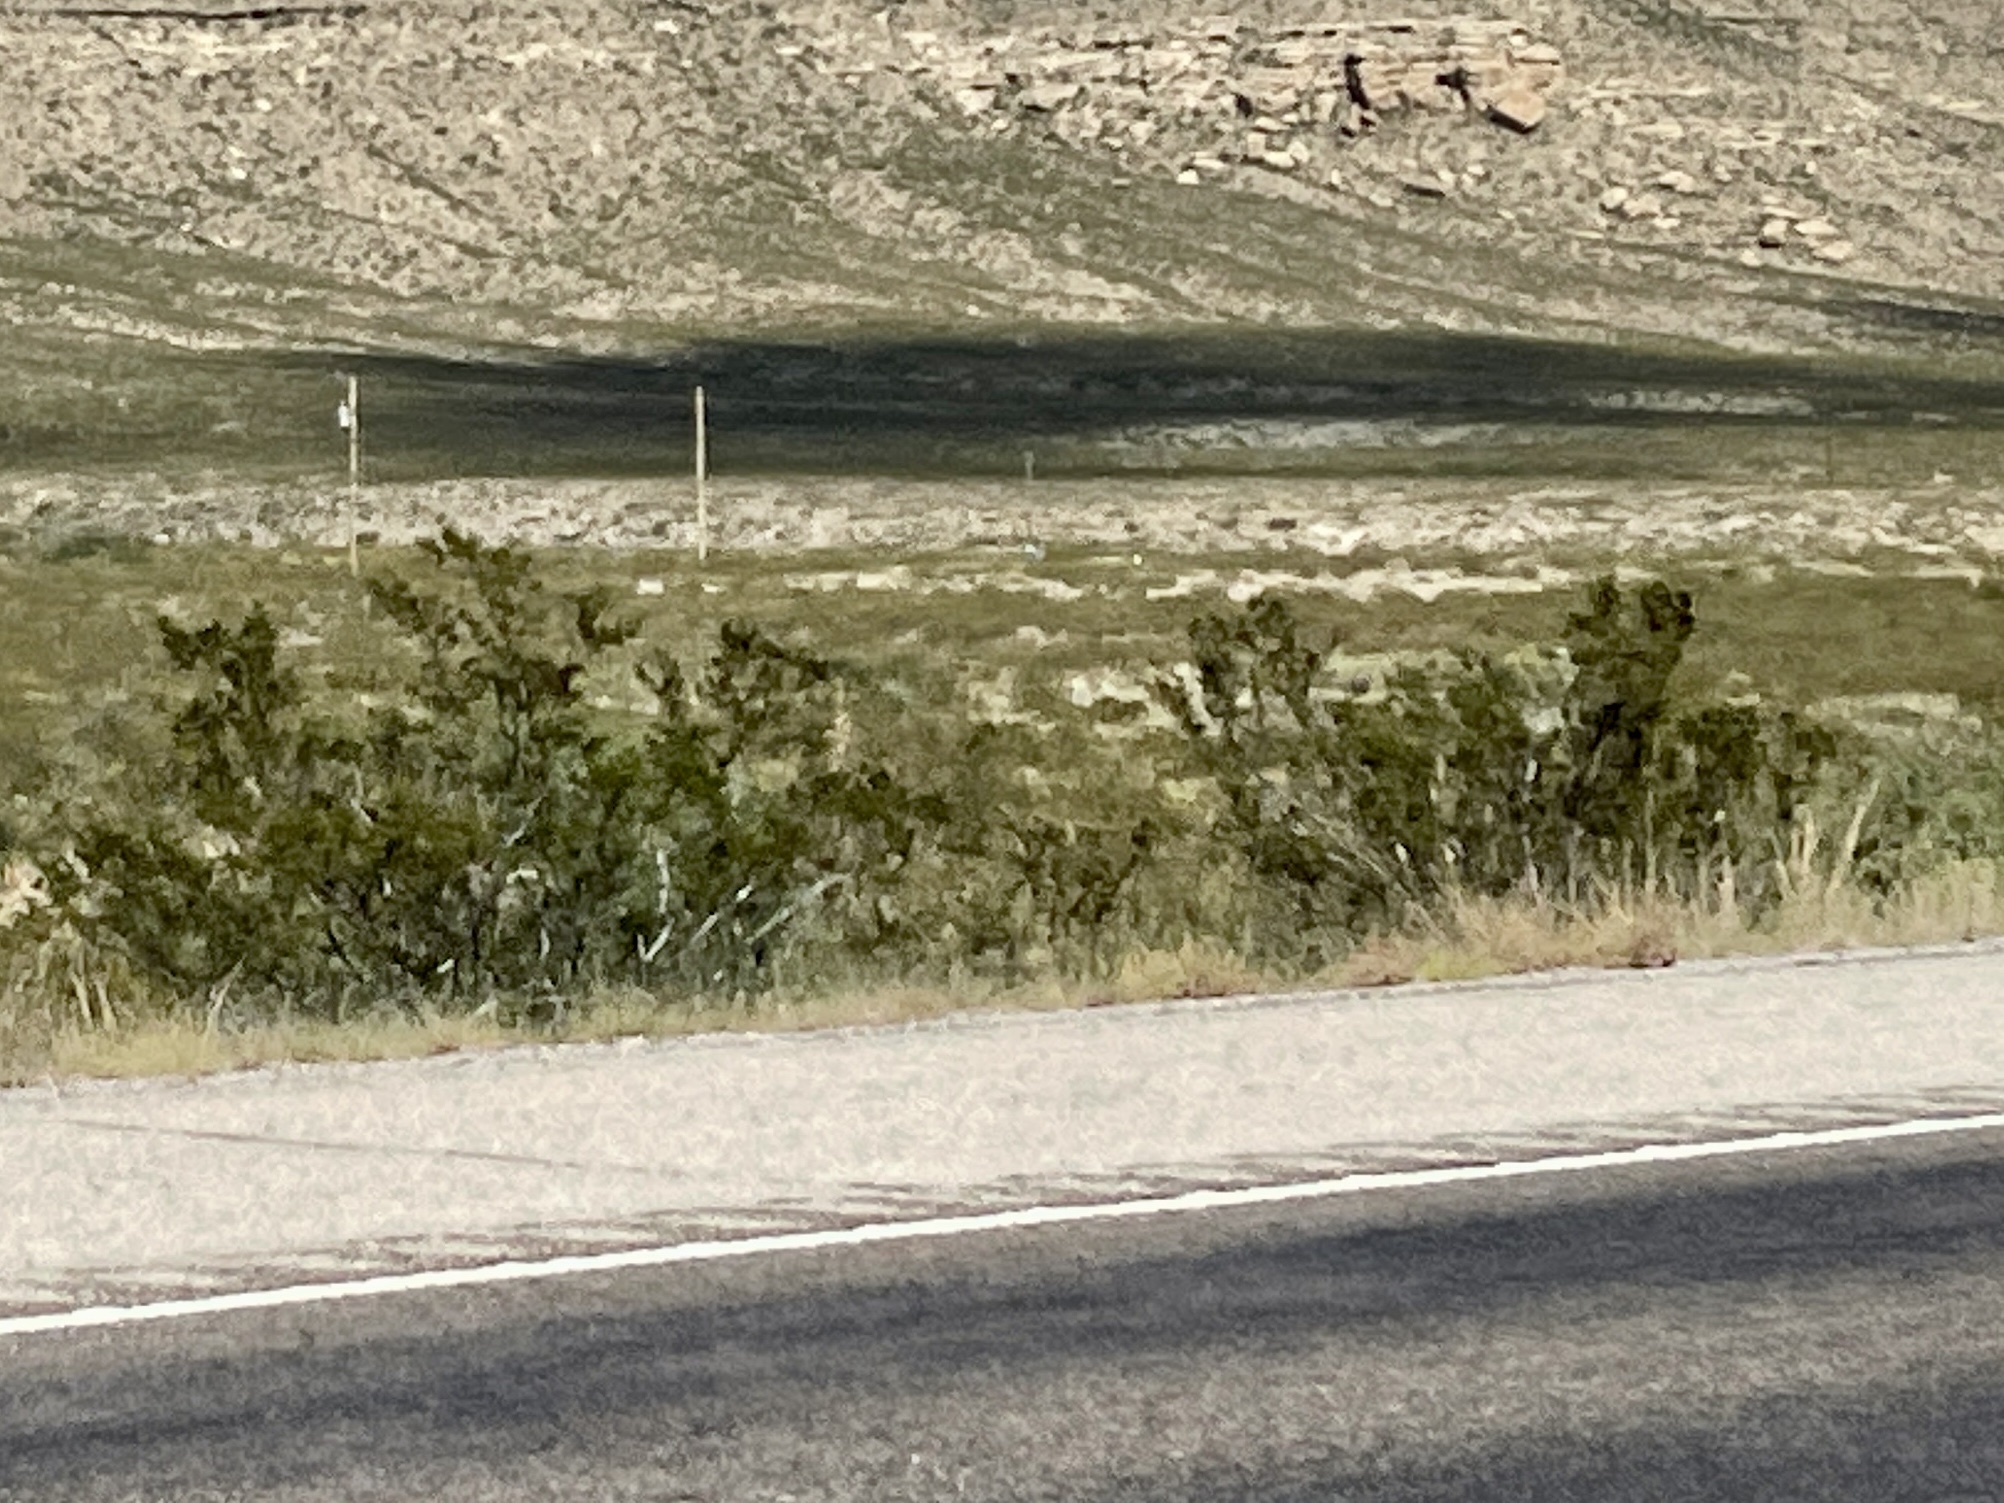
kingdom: Plantae
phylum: Tracheophyta
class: Magnoliopsida
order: Zygophyllales
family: Zygophyllaceae
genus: Larrea
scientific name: Larrea tridentata
